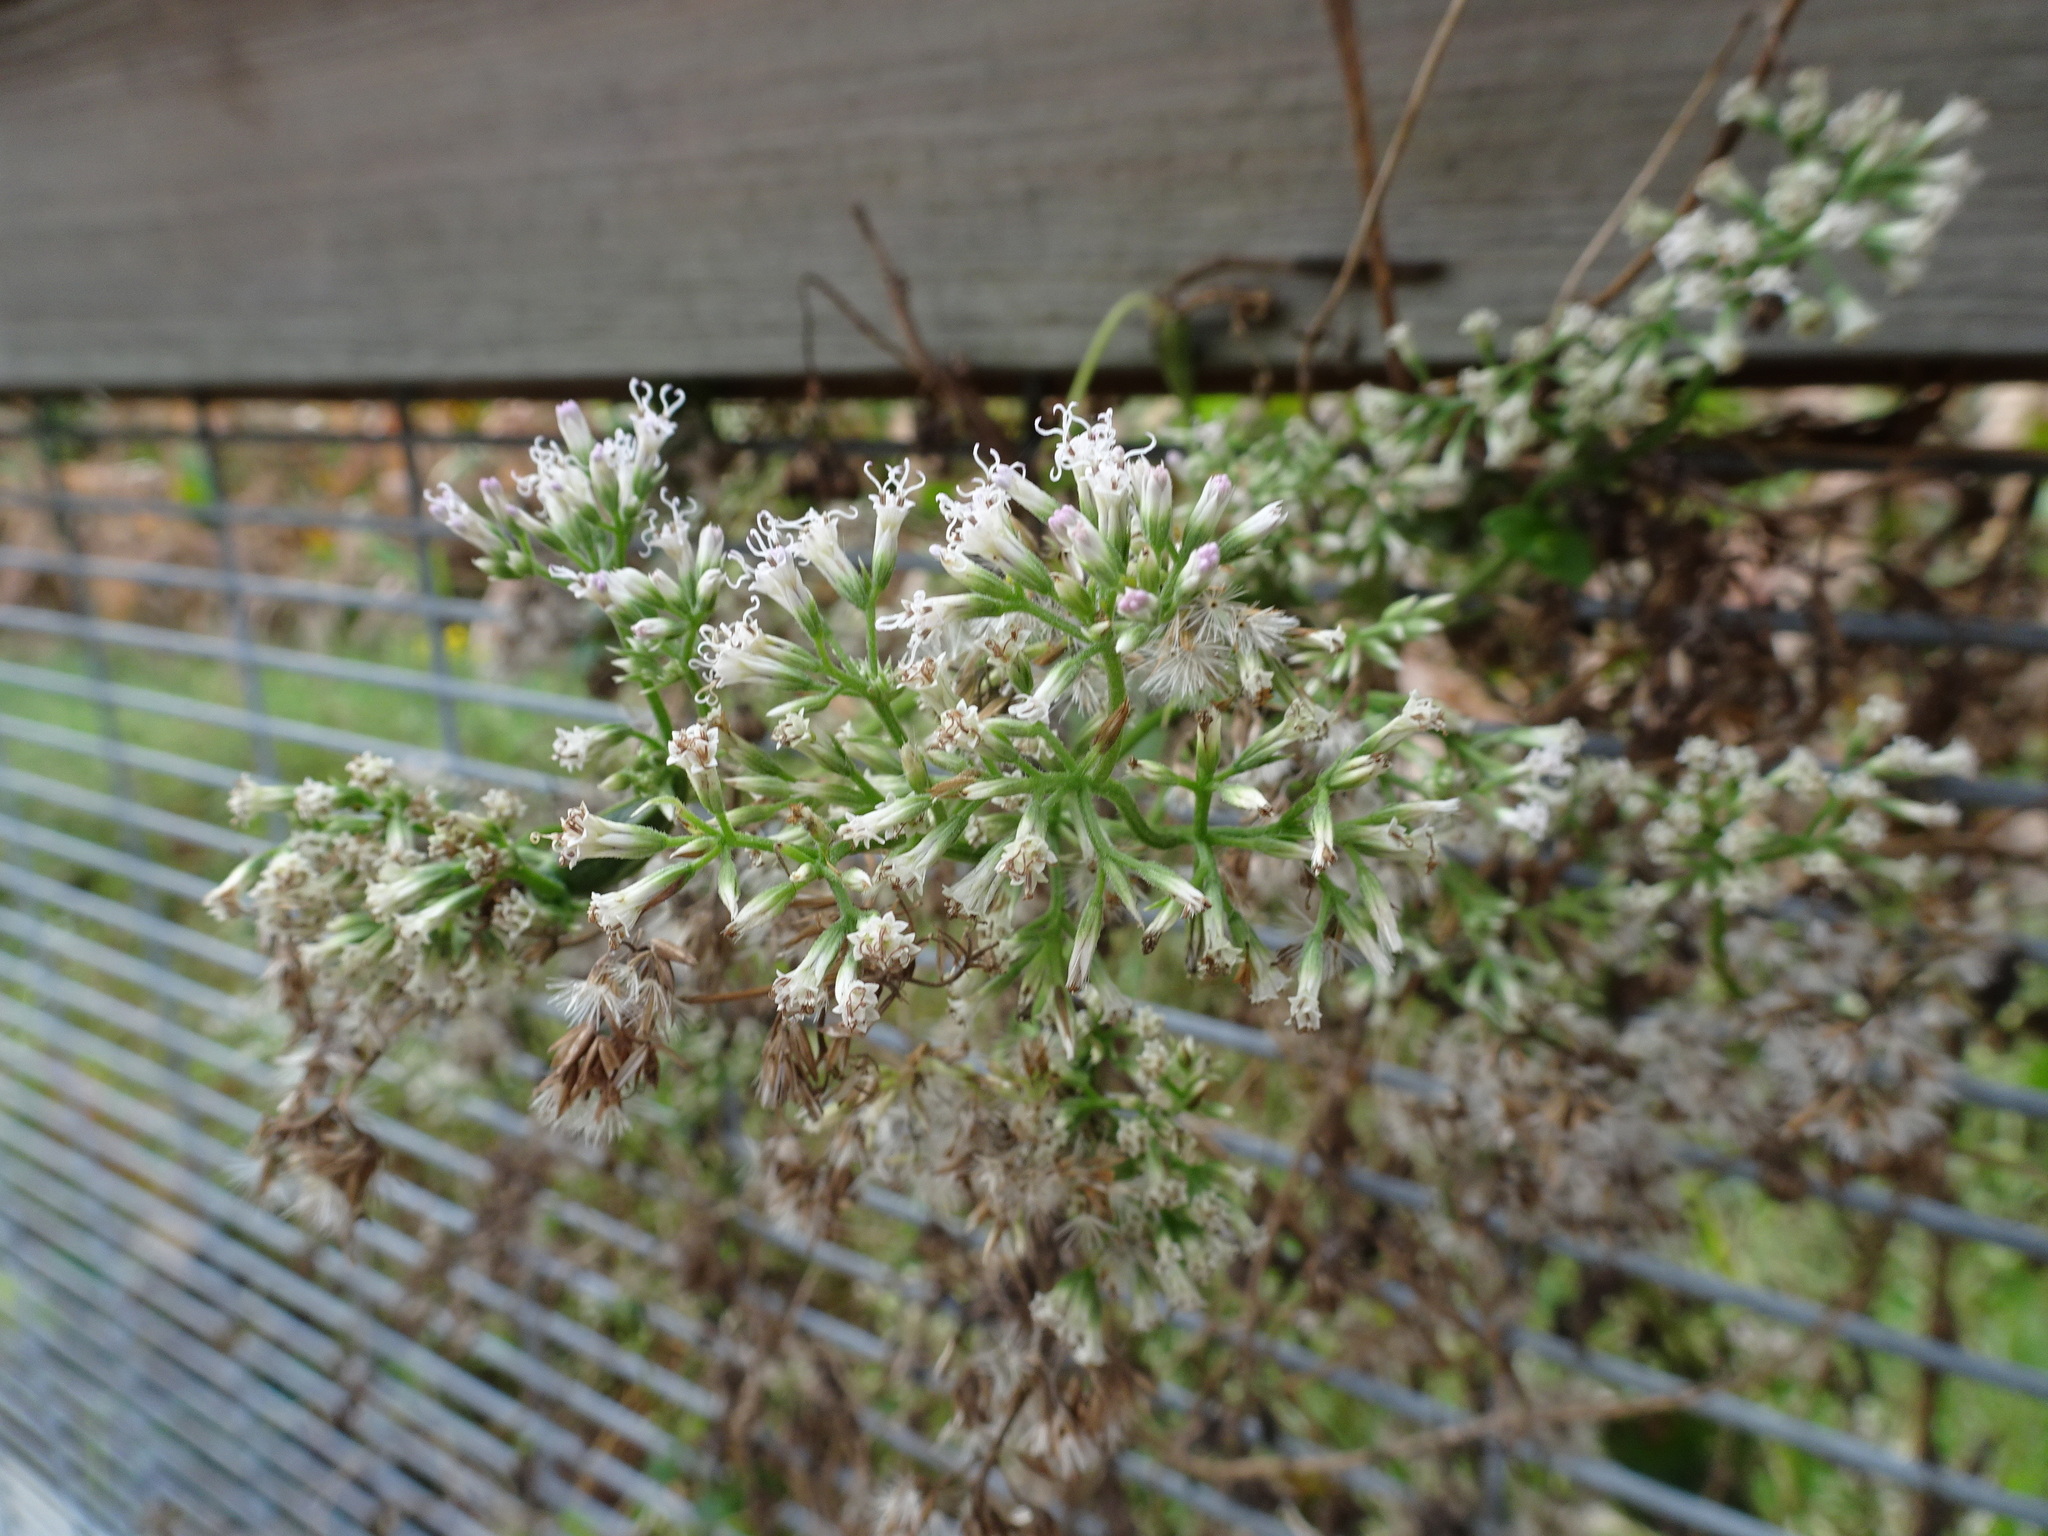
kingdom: Plantae
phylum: Tracheophyta
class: Magnoliopsida
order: Asterales
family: Asteraceae
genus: Mikania
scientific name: Mikania scandens
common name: Climbing hempvine
